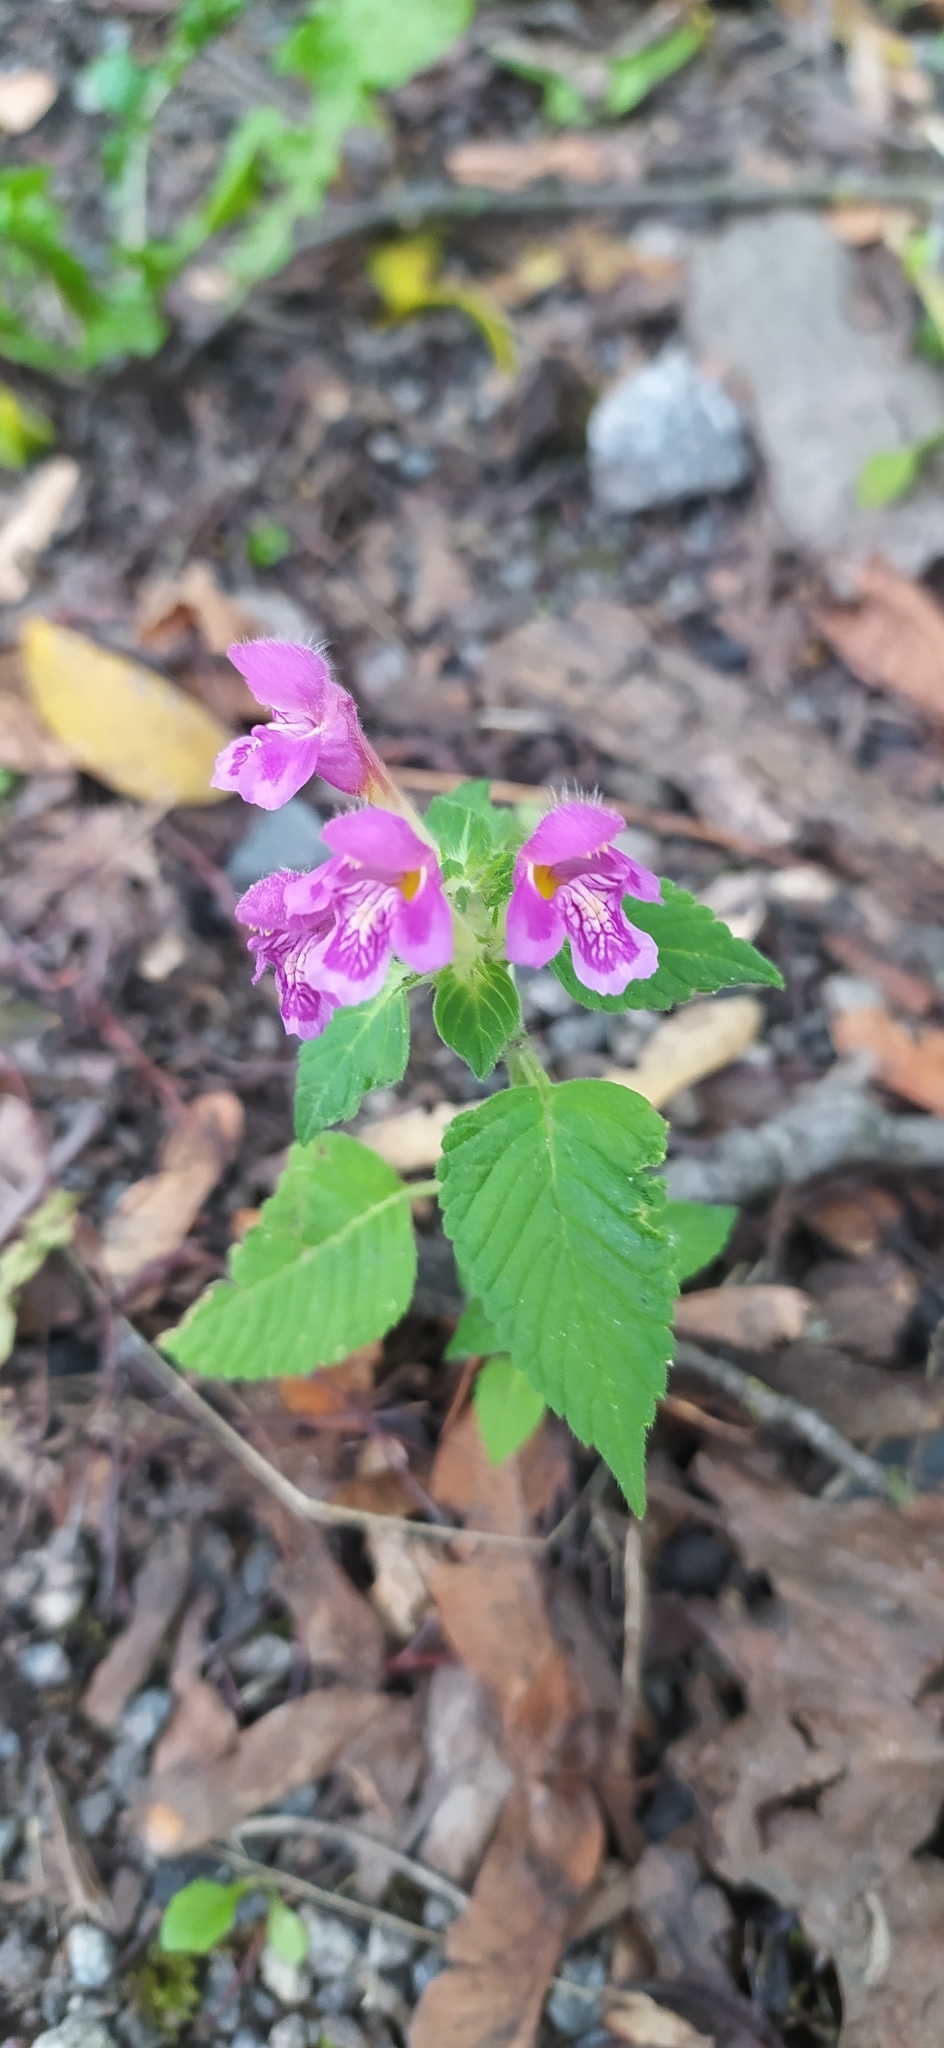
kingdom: Plantae
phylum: Tracheophyta
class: Magnoliopsida
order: Lamiales
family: Lamiaceae
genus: Galeopsis
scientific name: Galeopsis pubescens
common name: Downy hemp-nettle
